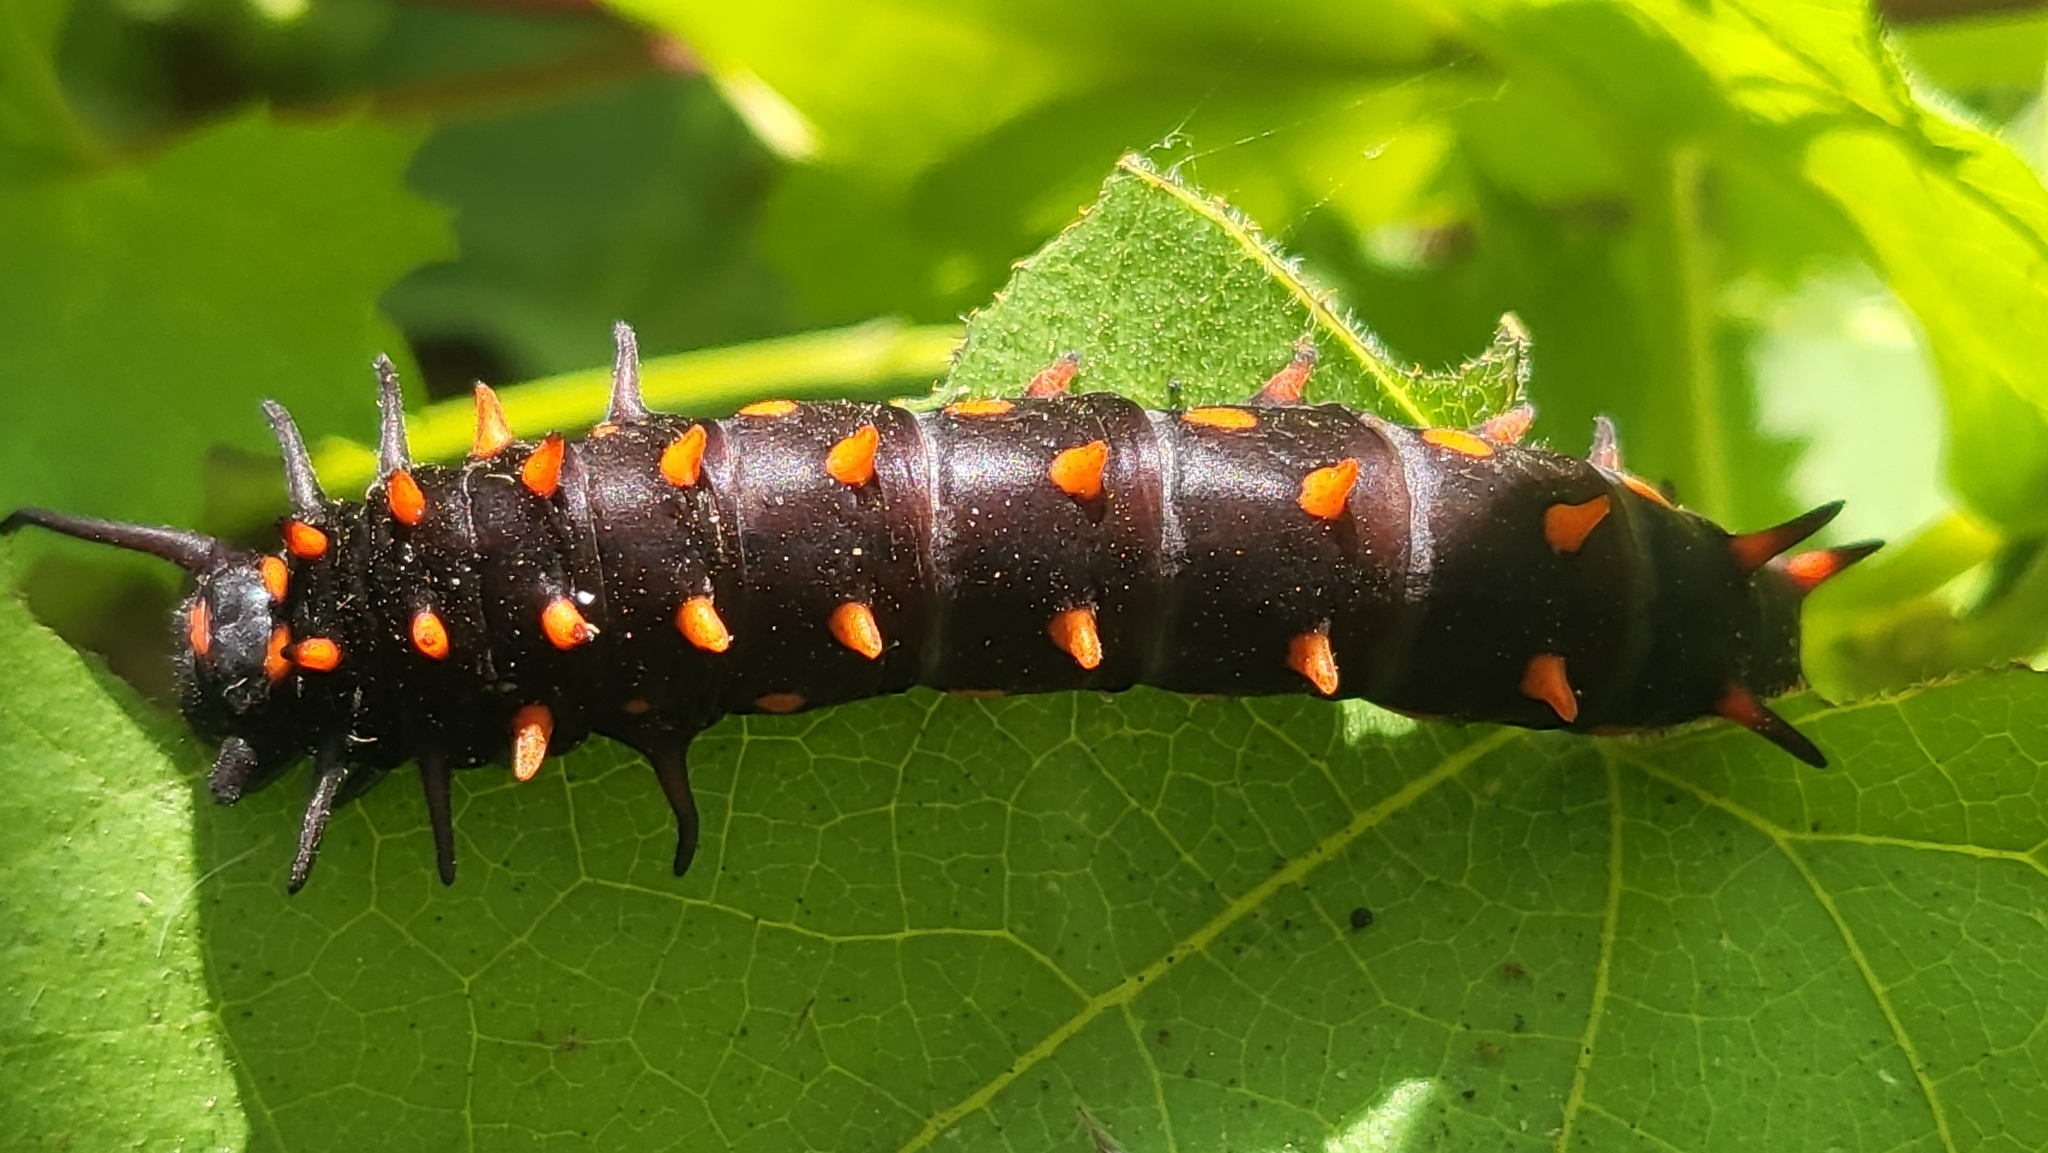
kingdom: Animalia
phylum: Arthropoda
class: Insecta
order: Lepidoptera
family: Papilionidae
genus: Battus
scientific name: Battus philenor
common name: Pipevine swallowtail
